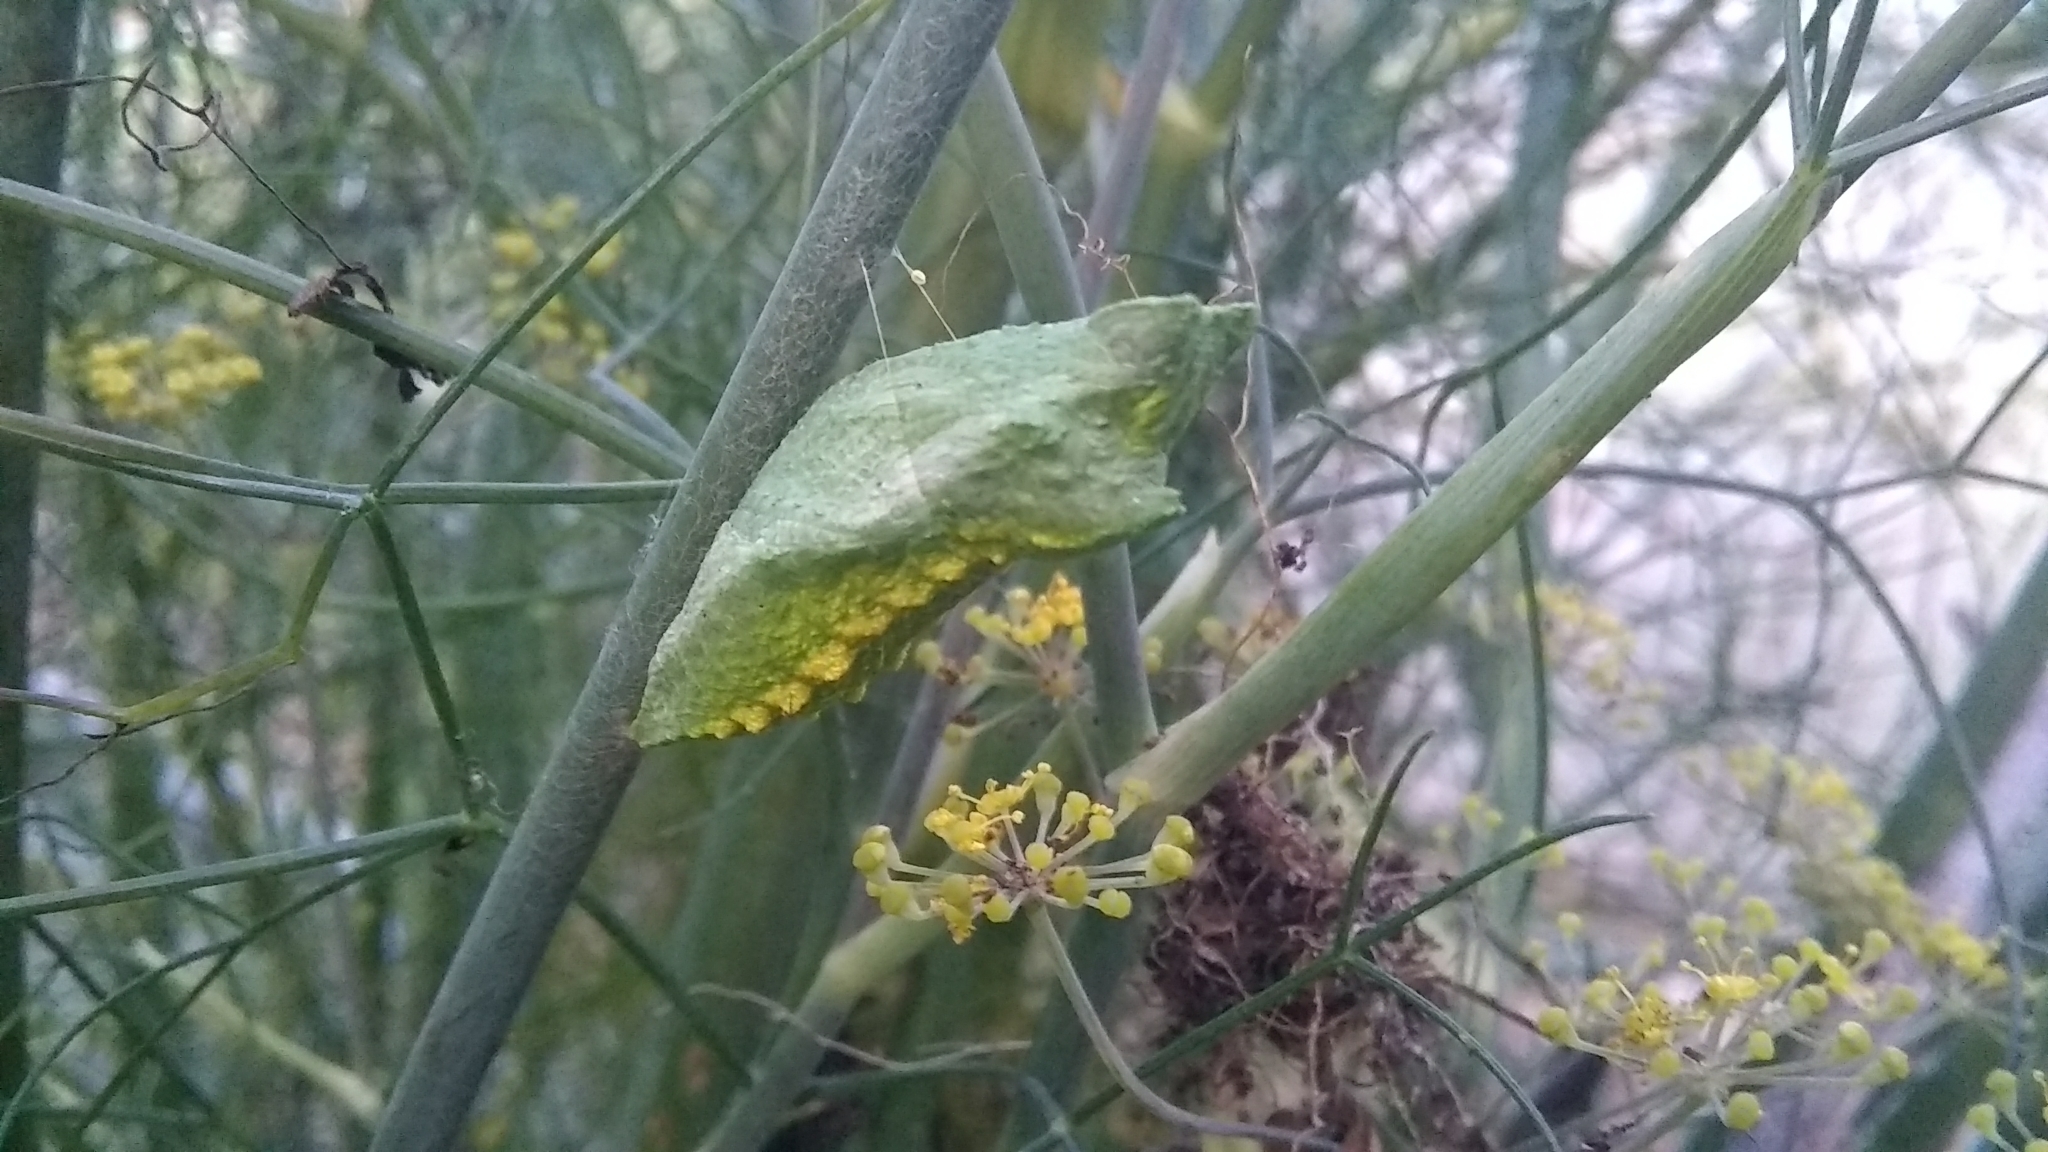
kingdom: Animalia
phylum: Arthropoda
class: Insecta
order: Lepidoptera
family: Papilionidae
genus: Papilio
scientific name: Papilio polyxenes
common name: Black swallowtail
